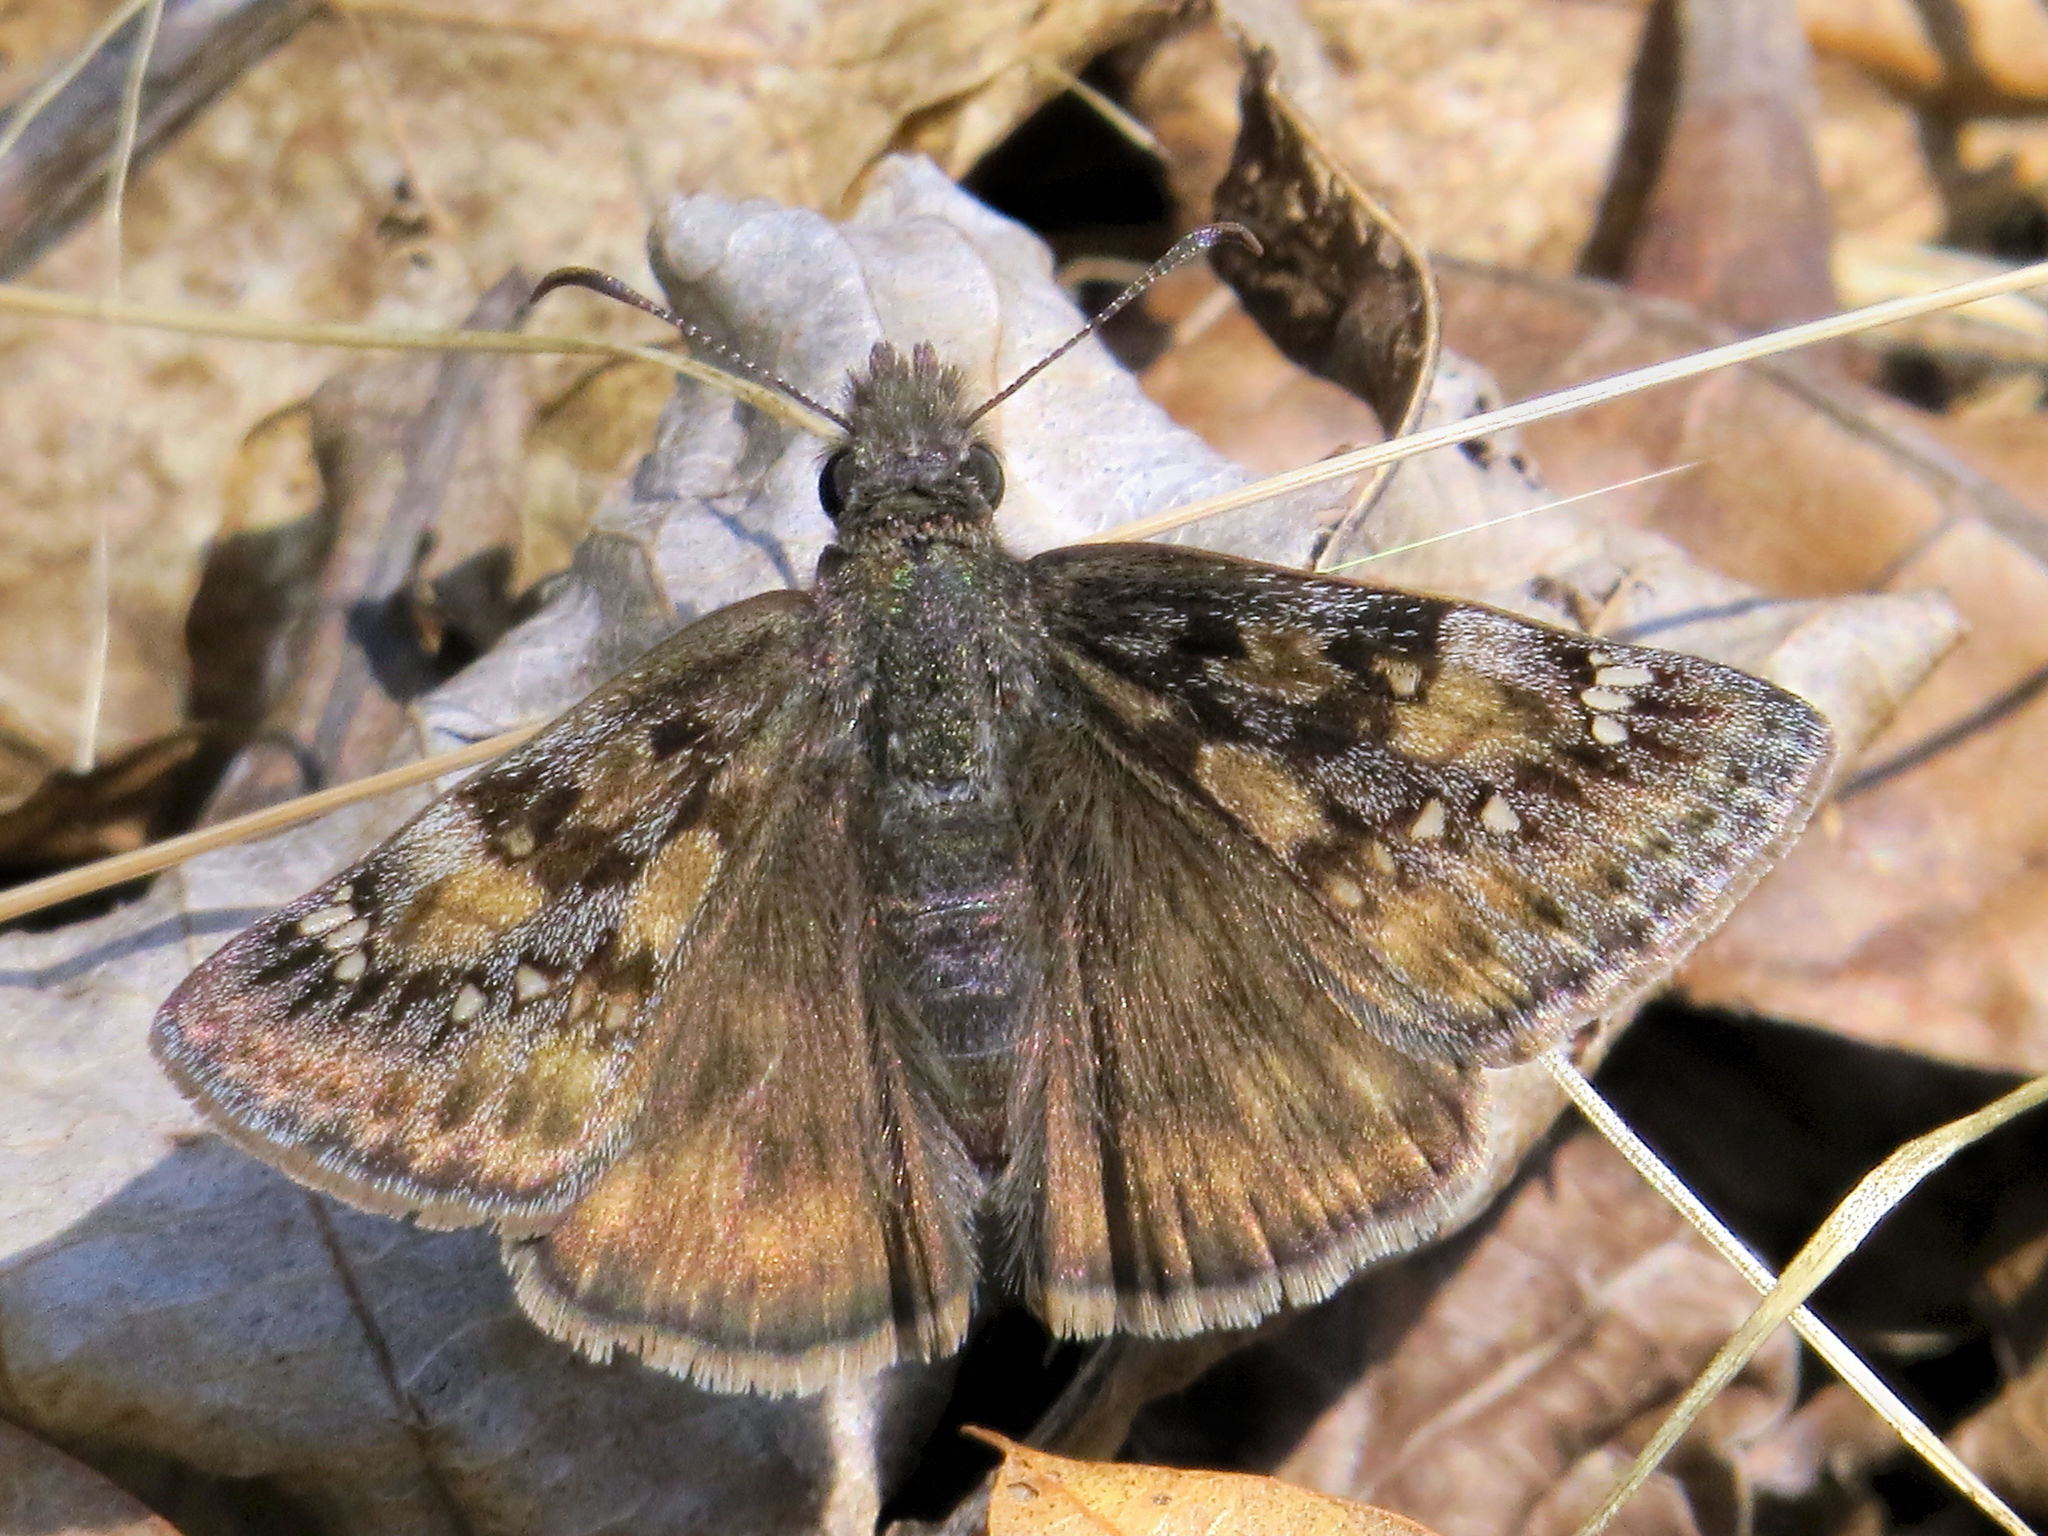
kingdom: Animalia
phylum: Arthropoda
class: Insecta
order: Lepidoptera
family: Hesperiidae
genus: Erynnis
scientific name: Erynnis juvenalis
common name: Juvenal's duskywing
